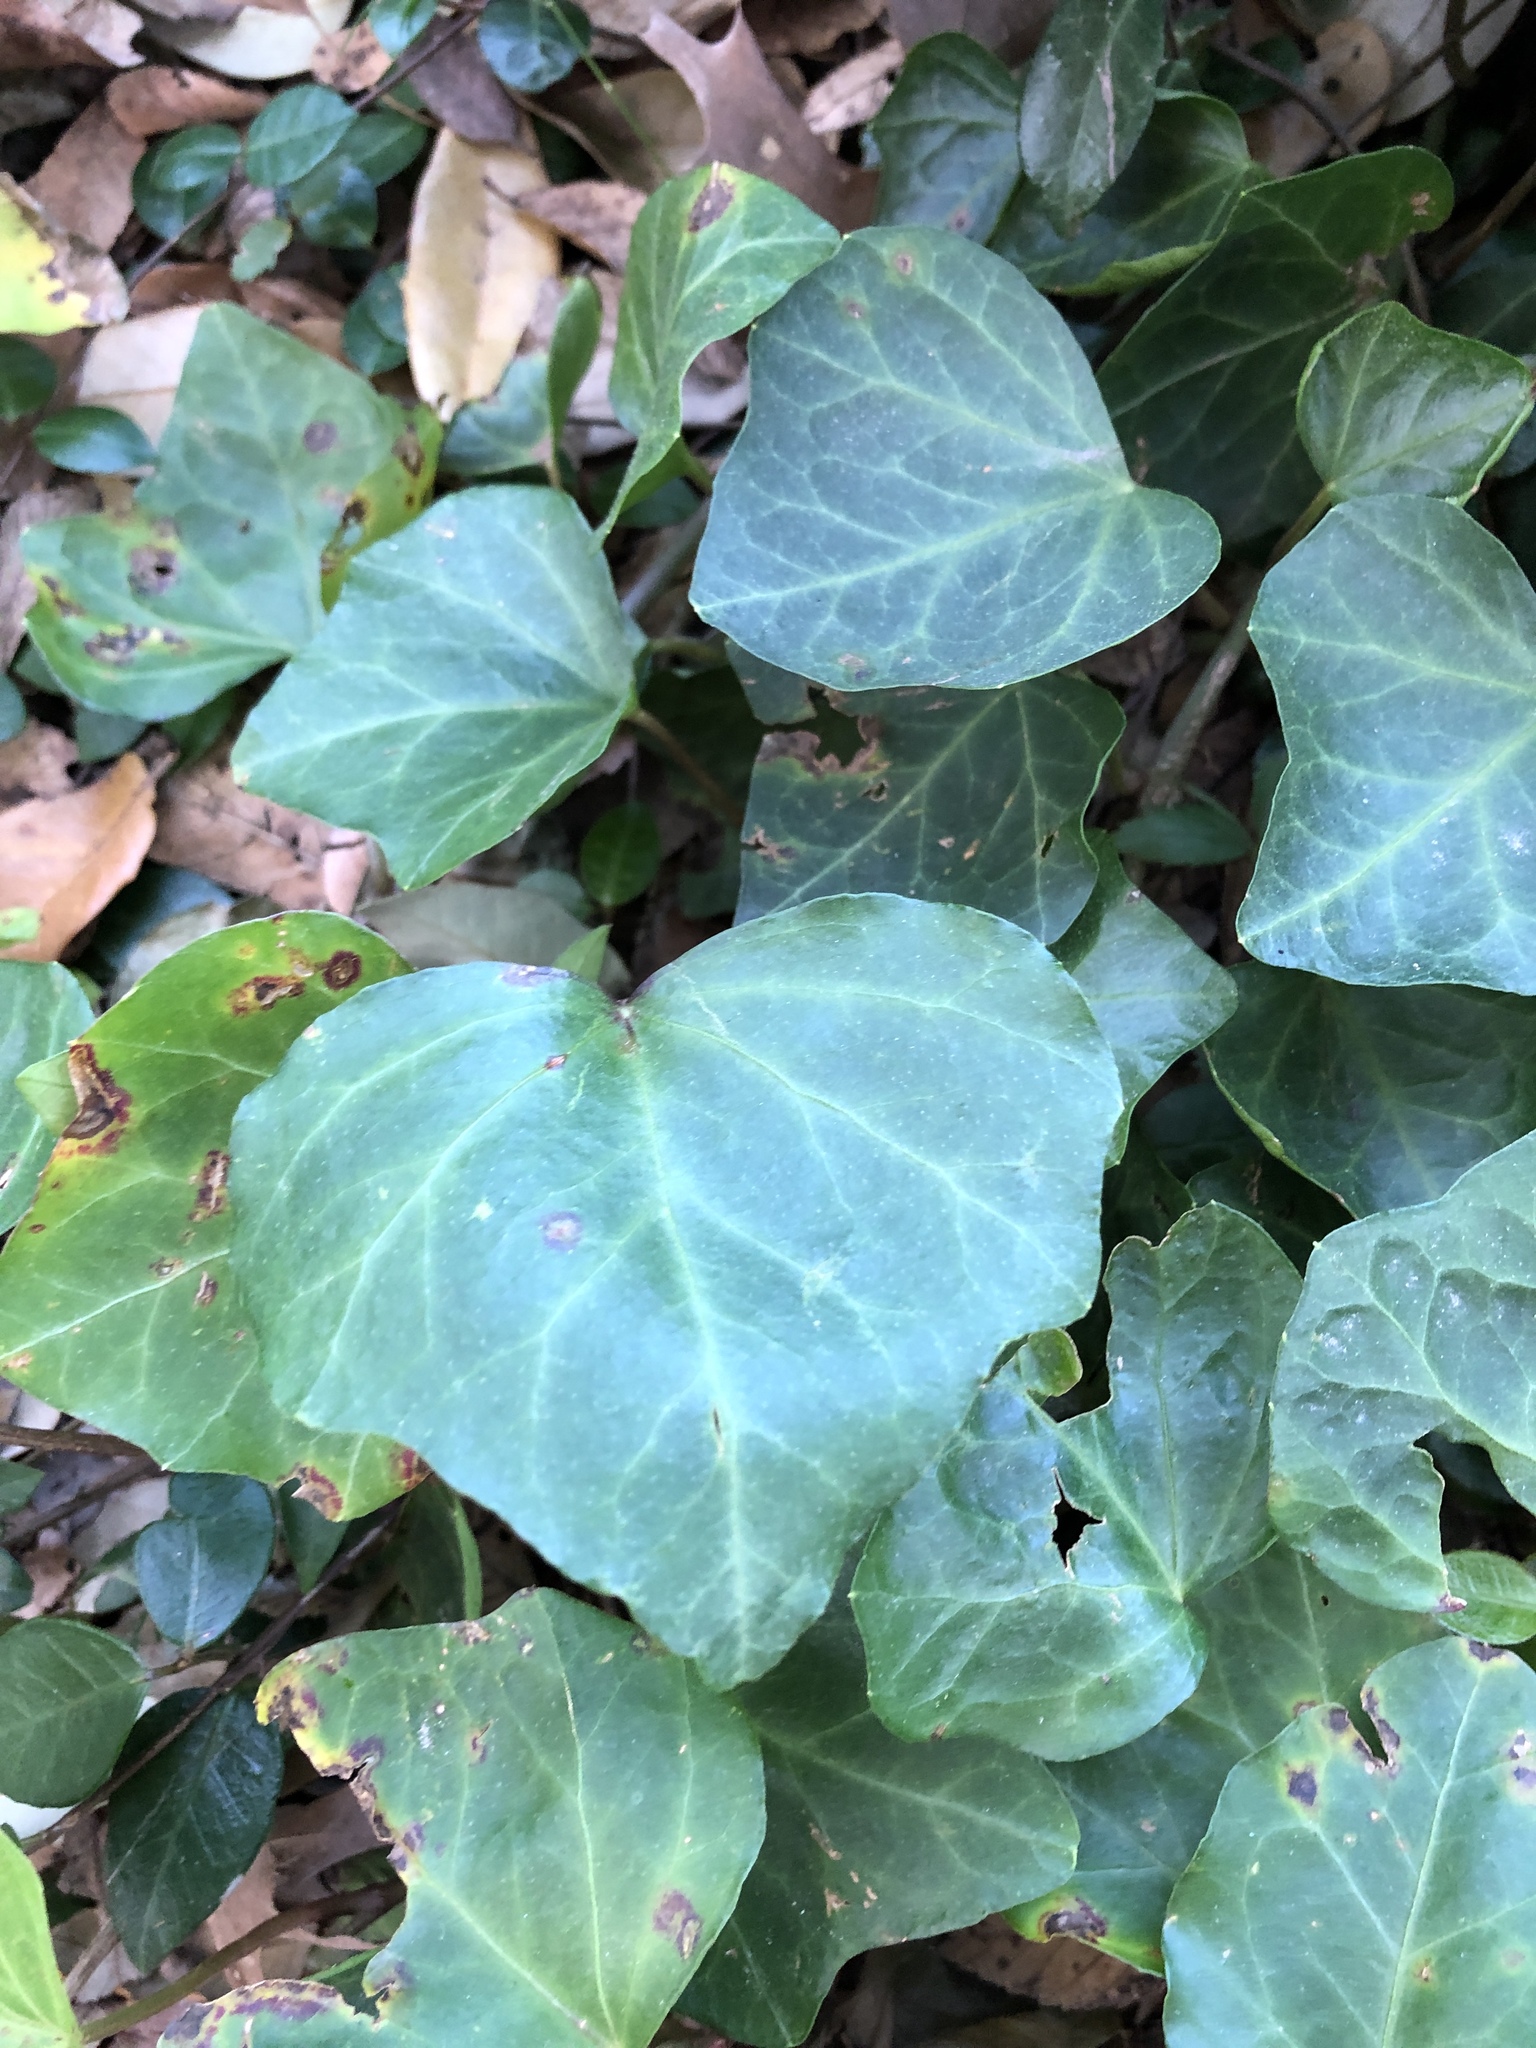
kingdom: Plantae
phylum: Tracheophyta
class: Magnoliopsida
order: Apiales
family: Araliaceae
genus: Hedera
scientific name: Hedera helix
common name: Ivy
